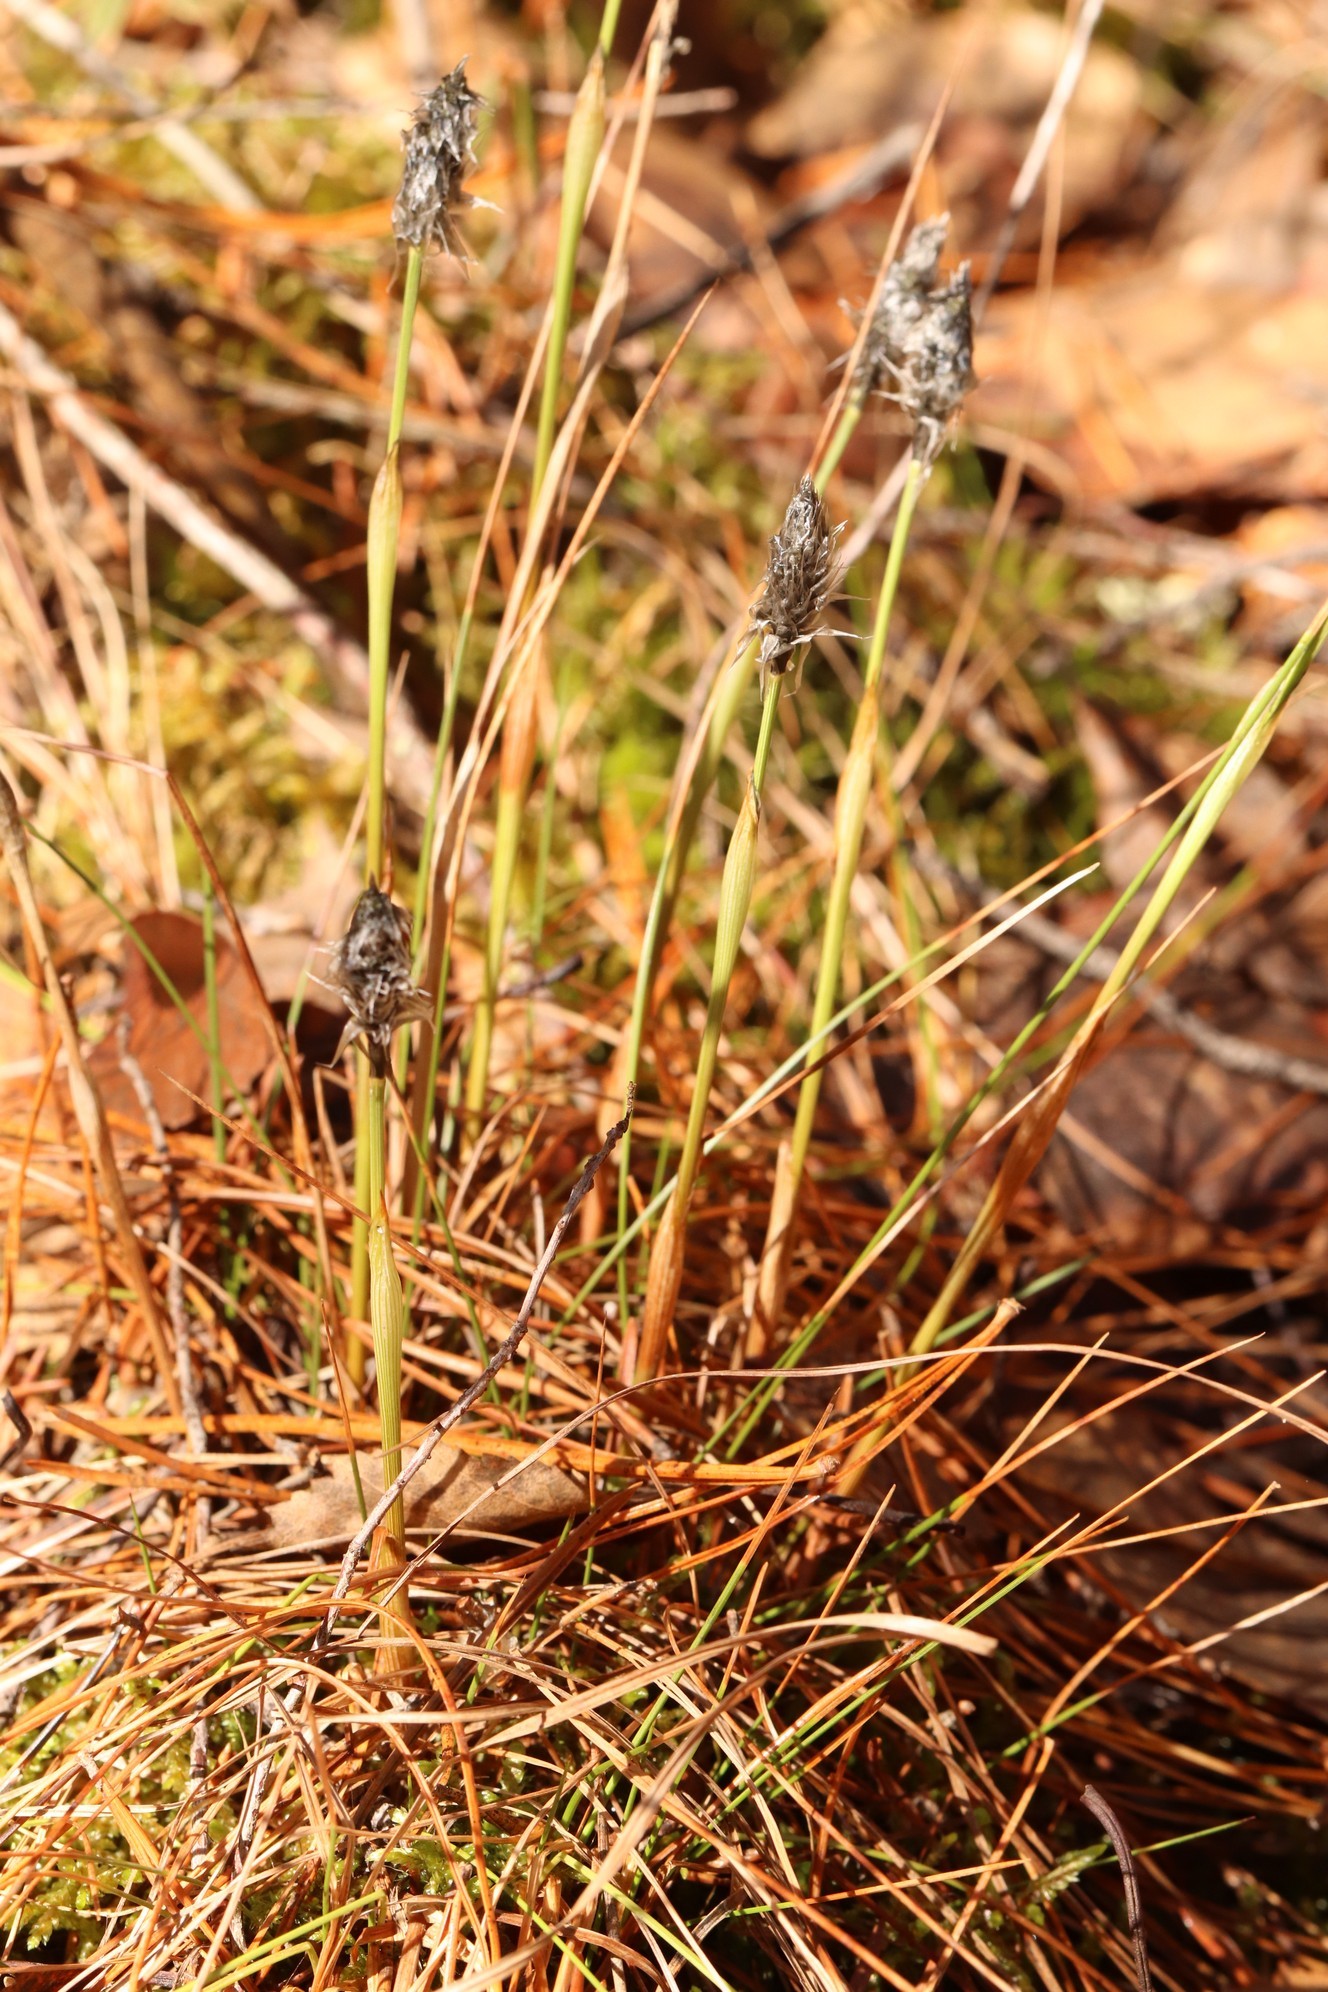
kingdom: Plantae
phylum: Tracheophyta
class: Liliopsida
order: Poales
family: Cyperaceae
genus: Eriophorum
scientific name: Eriophorum vaginatum
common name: Hare's-tail cottongrass
